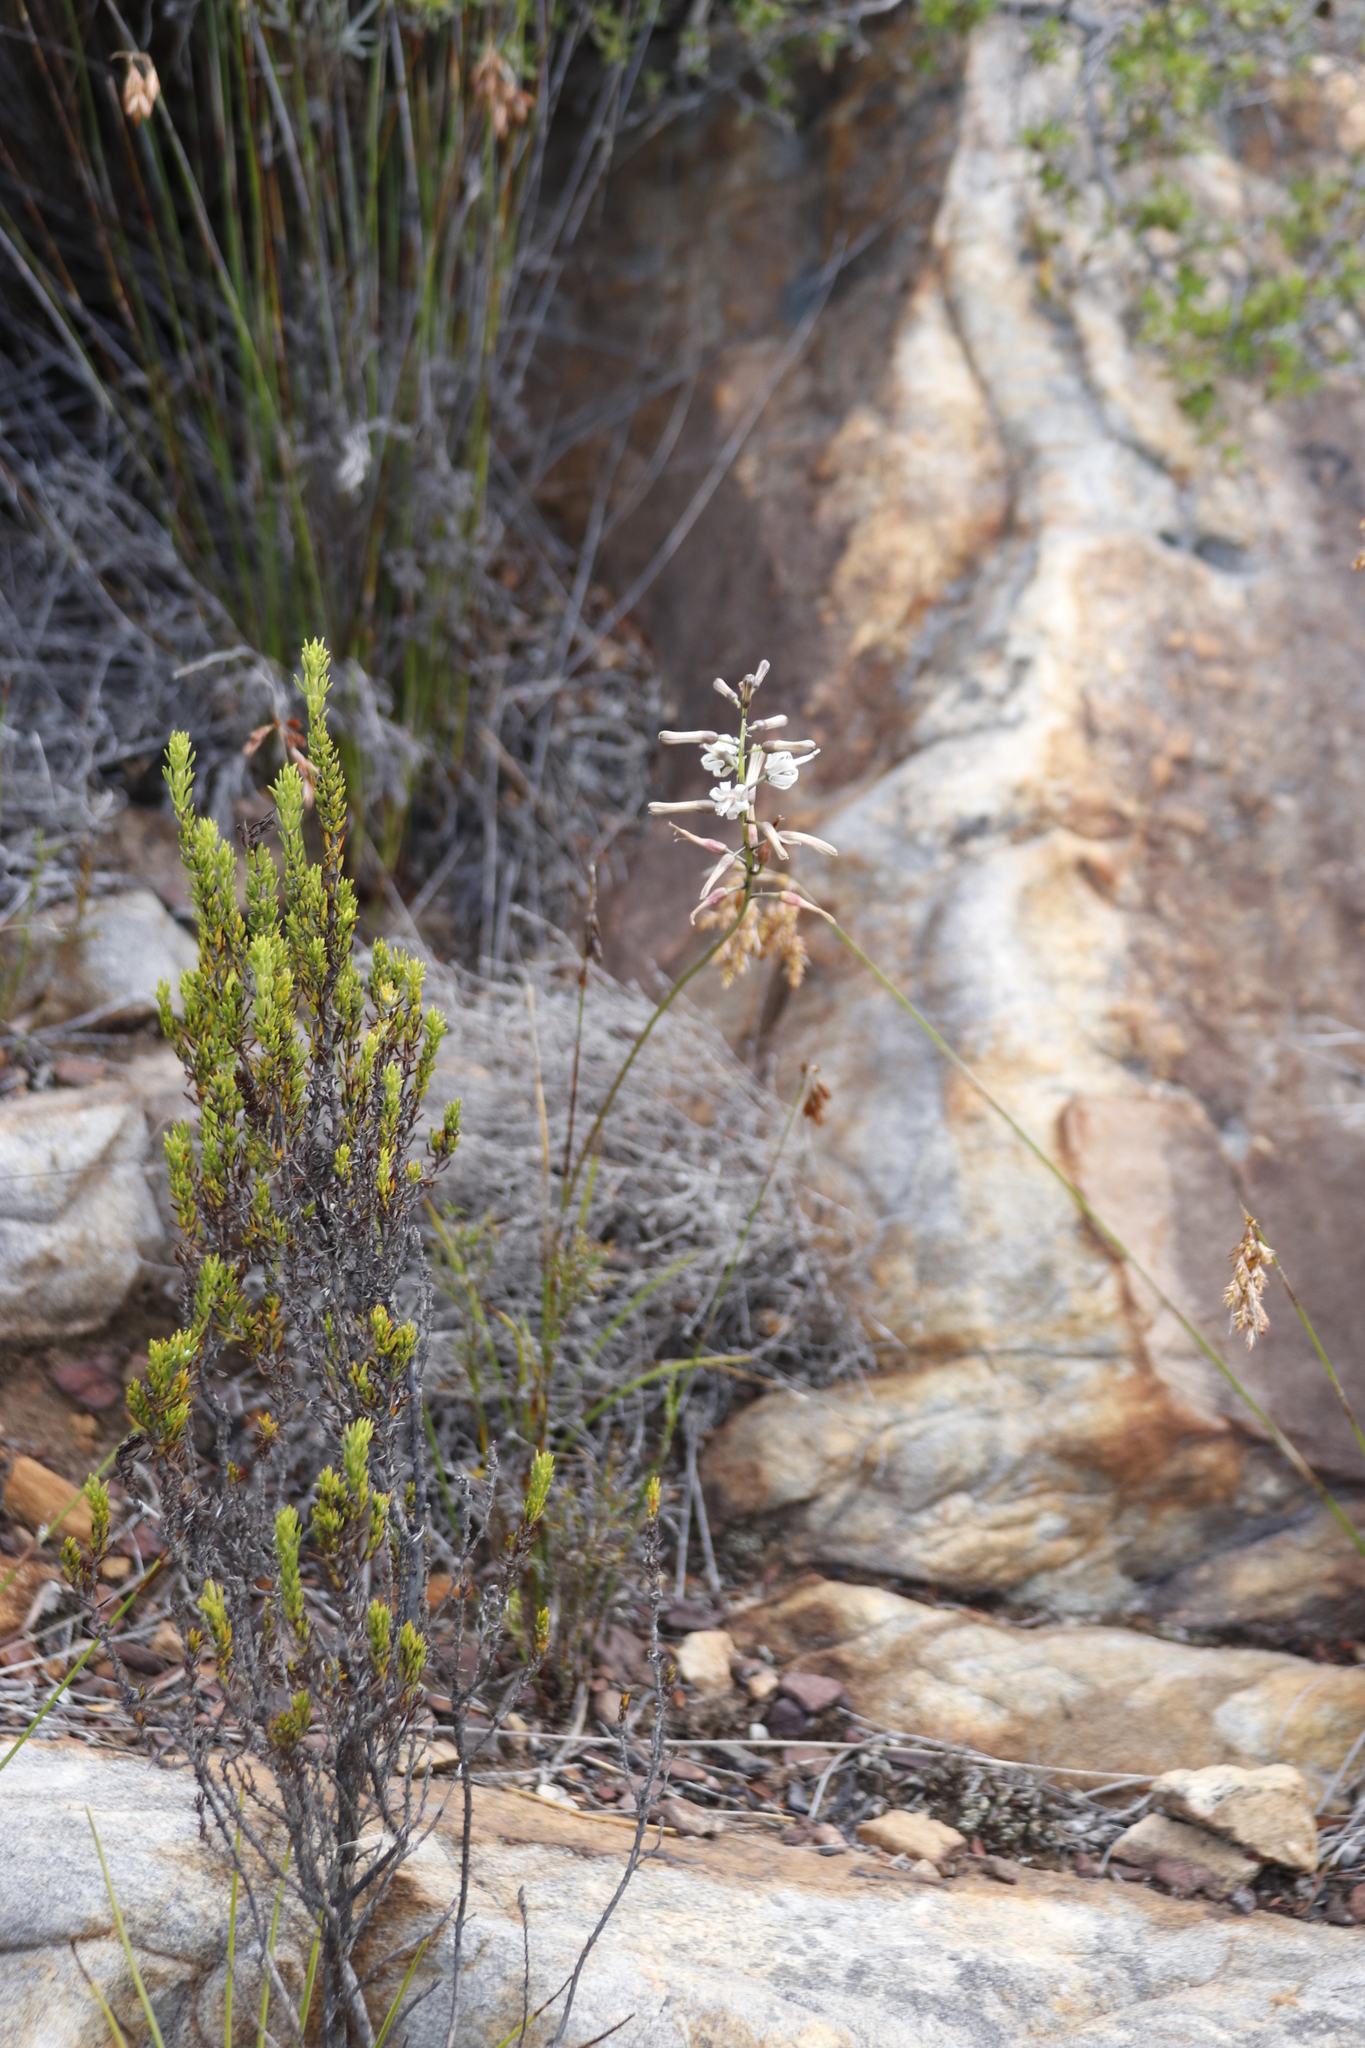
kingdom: Plantae
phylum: Tracheophyta
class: Liliopsida
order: Asparagales
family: Asparagaceae
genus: Drimia
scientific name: Drimia media
